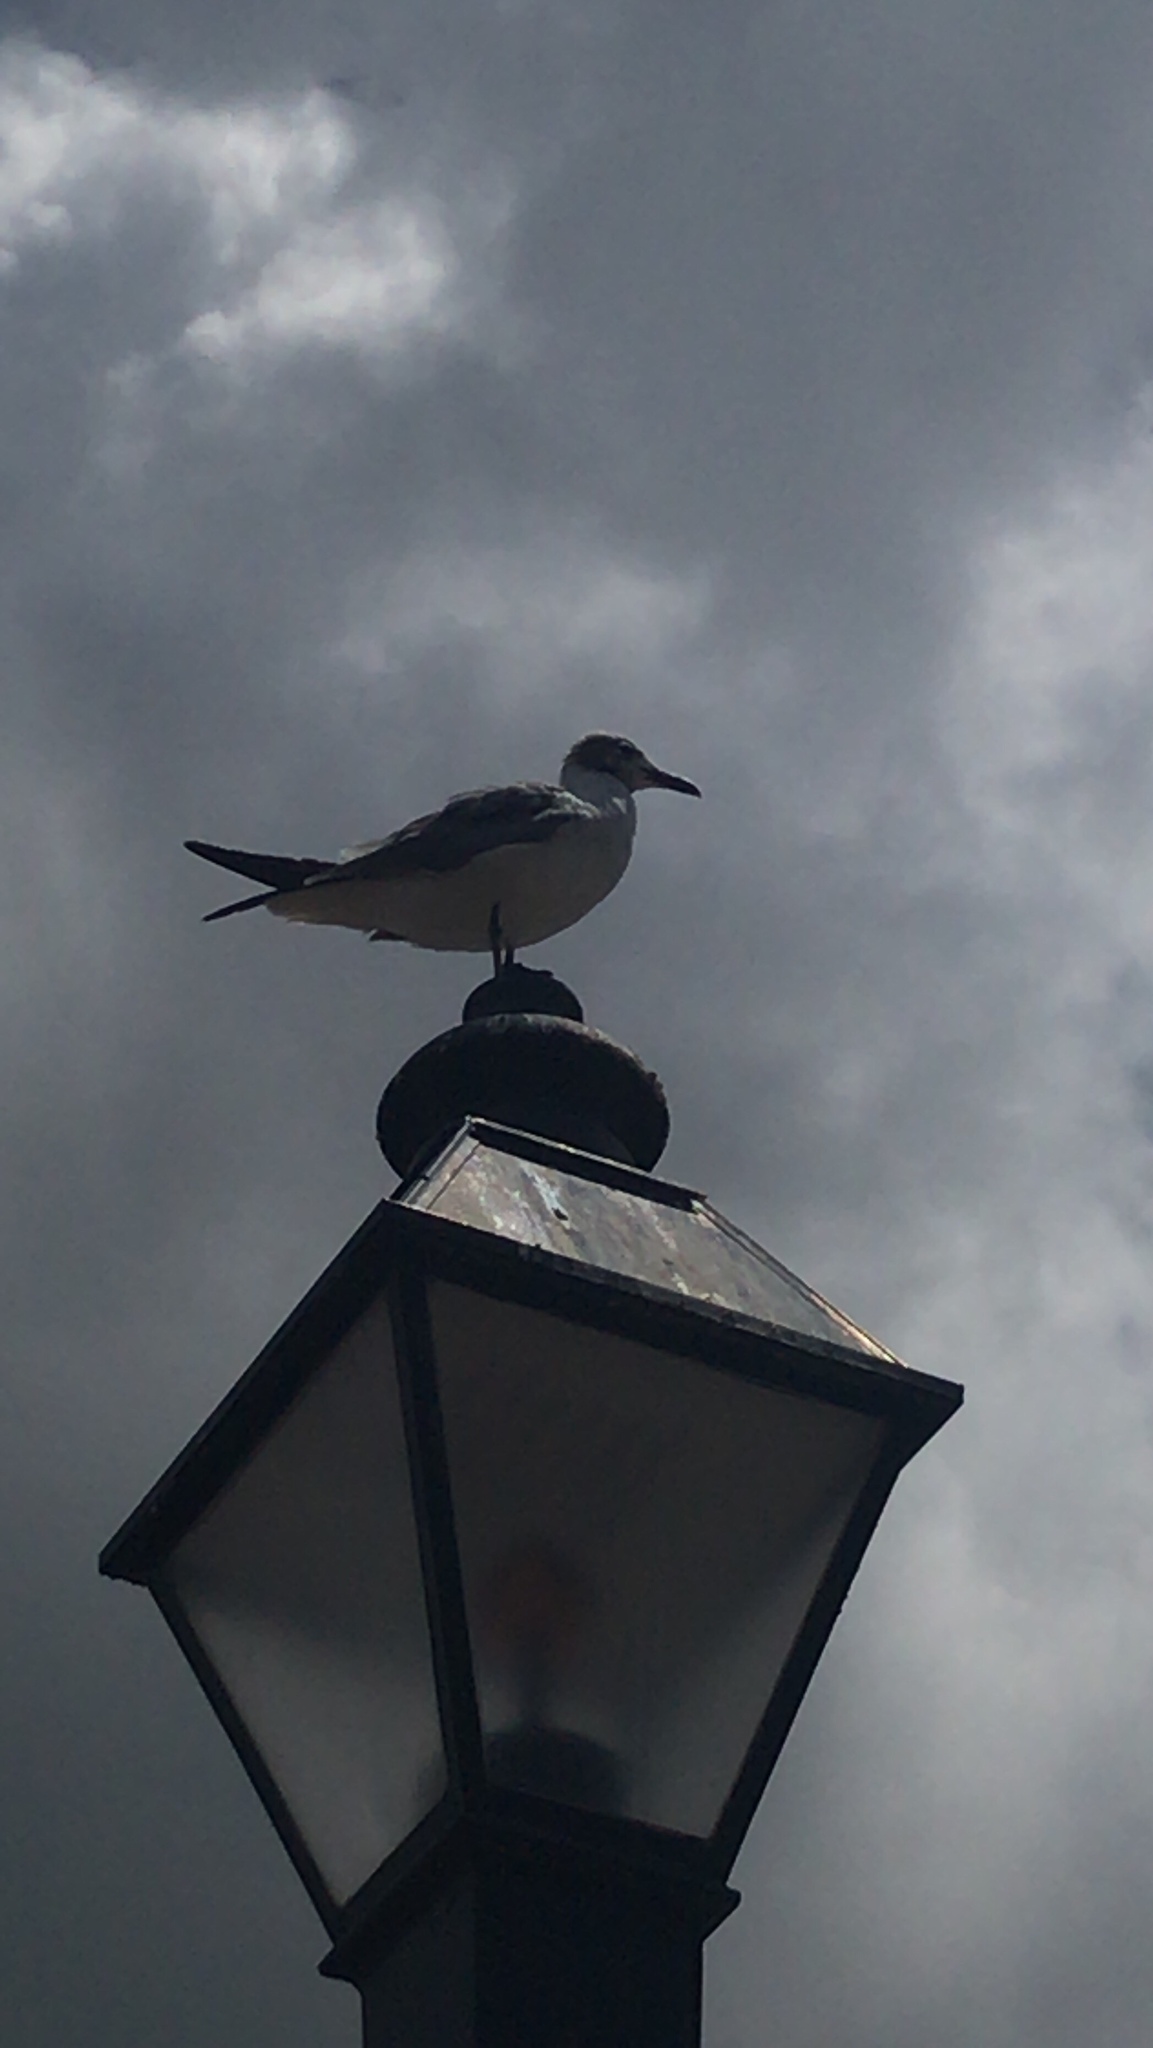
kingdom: Animalia
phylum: Chordata
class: Aves
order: Charadriiformes
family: Laridae
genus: Leucophaeus
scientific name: Leucophaeus atricilla
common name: Laughing gull
